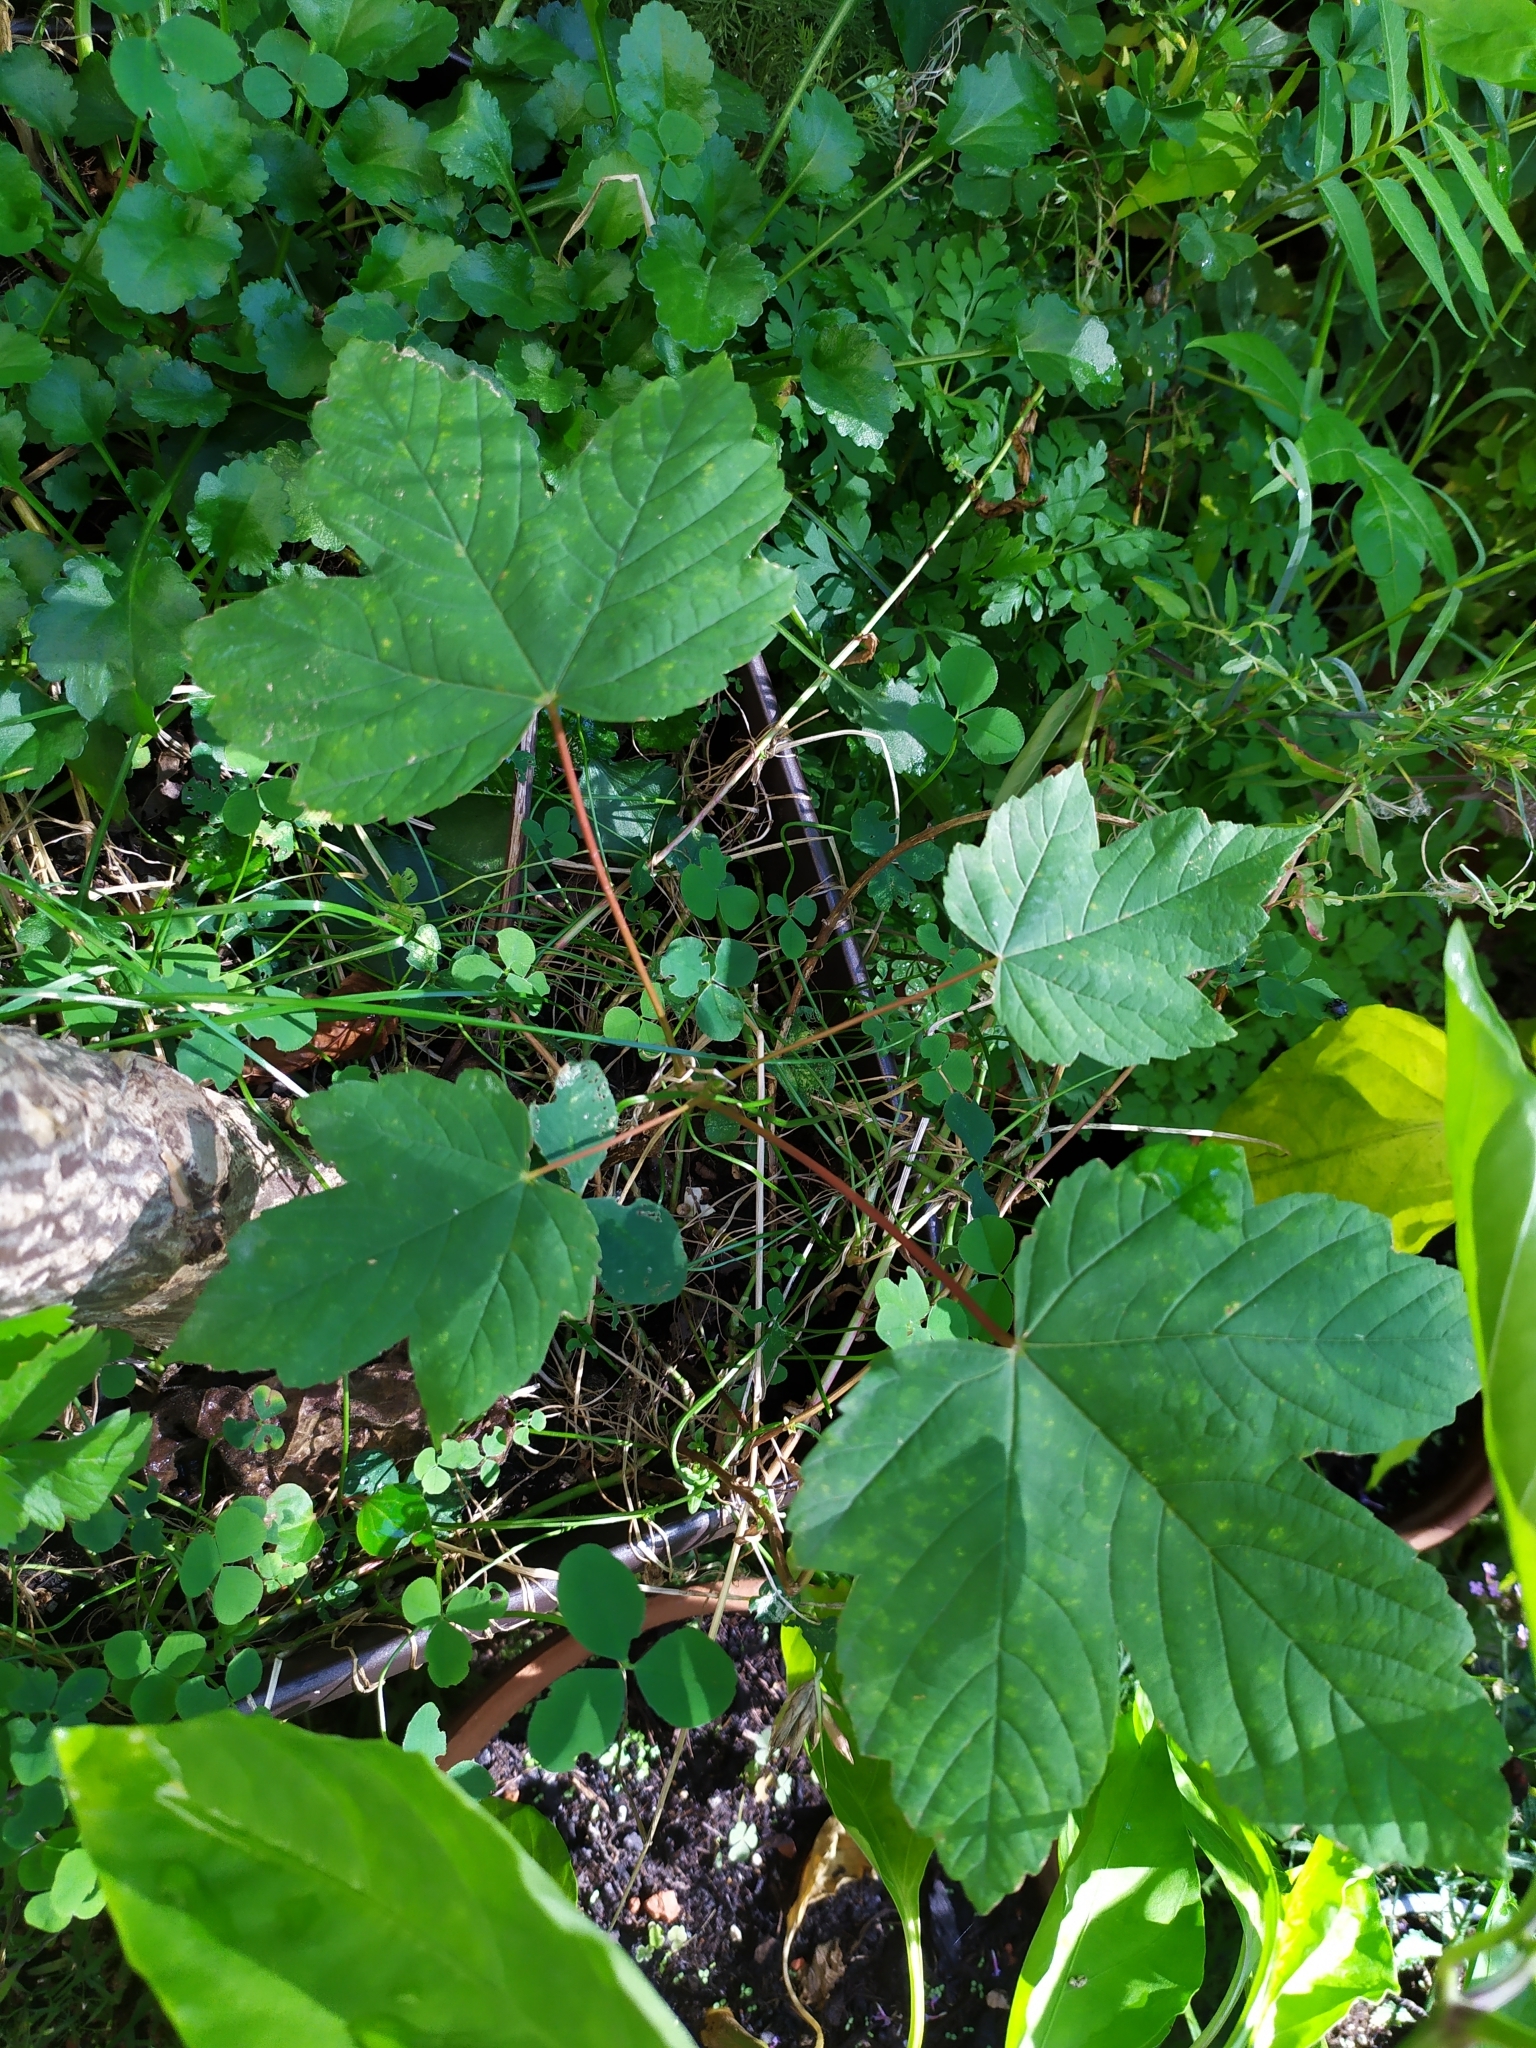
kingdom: Plantae
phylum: Tracheophyta
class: Magnoliopsida
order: Sapindales
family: Sapindaceae
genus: Acer
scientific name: Acer pseudoplatanus
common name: Sycamore
